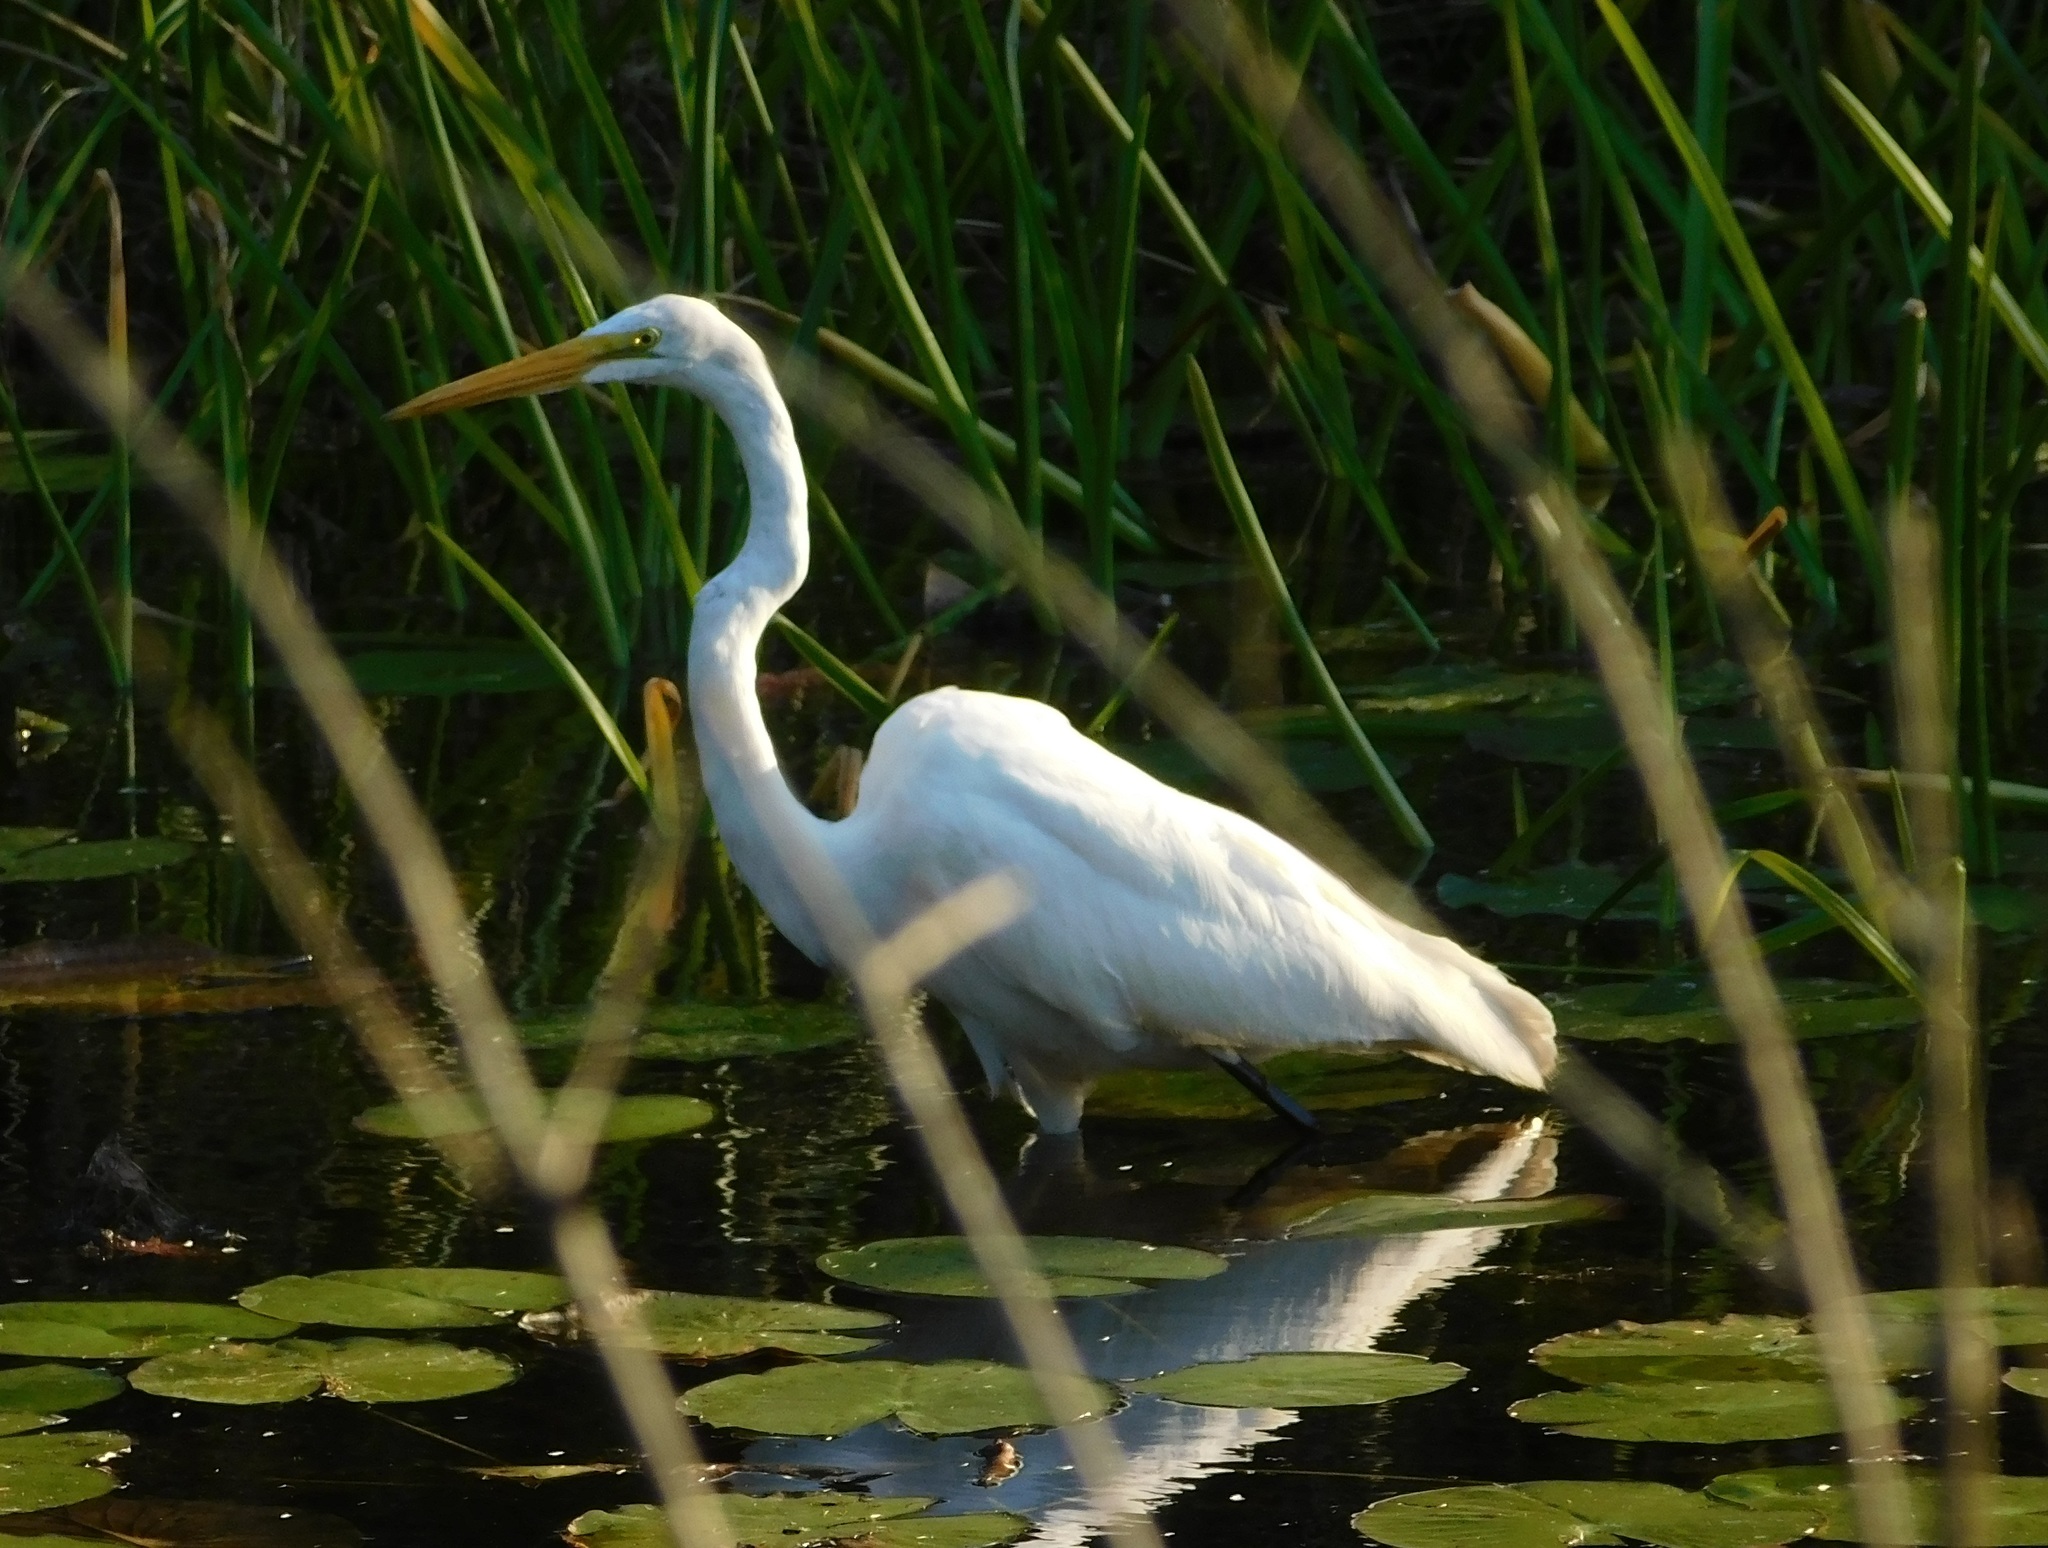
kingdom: Animalia
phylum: Chordata
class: Aves
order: Pelecaniformes
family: Ardeidae
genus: Ardea
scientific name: Ardea alba
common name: Great egret
